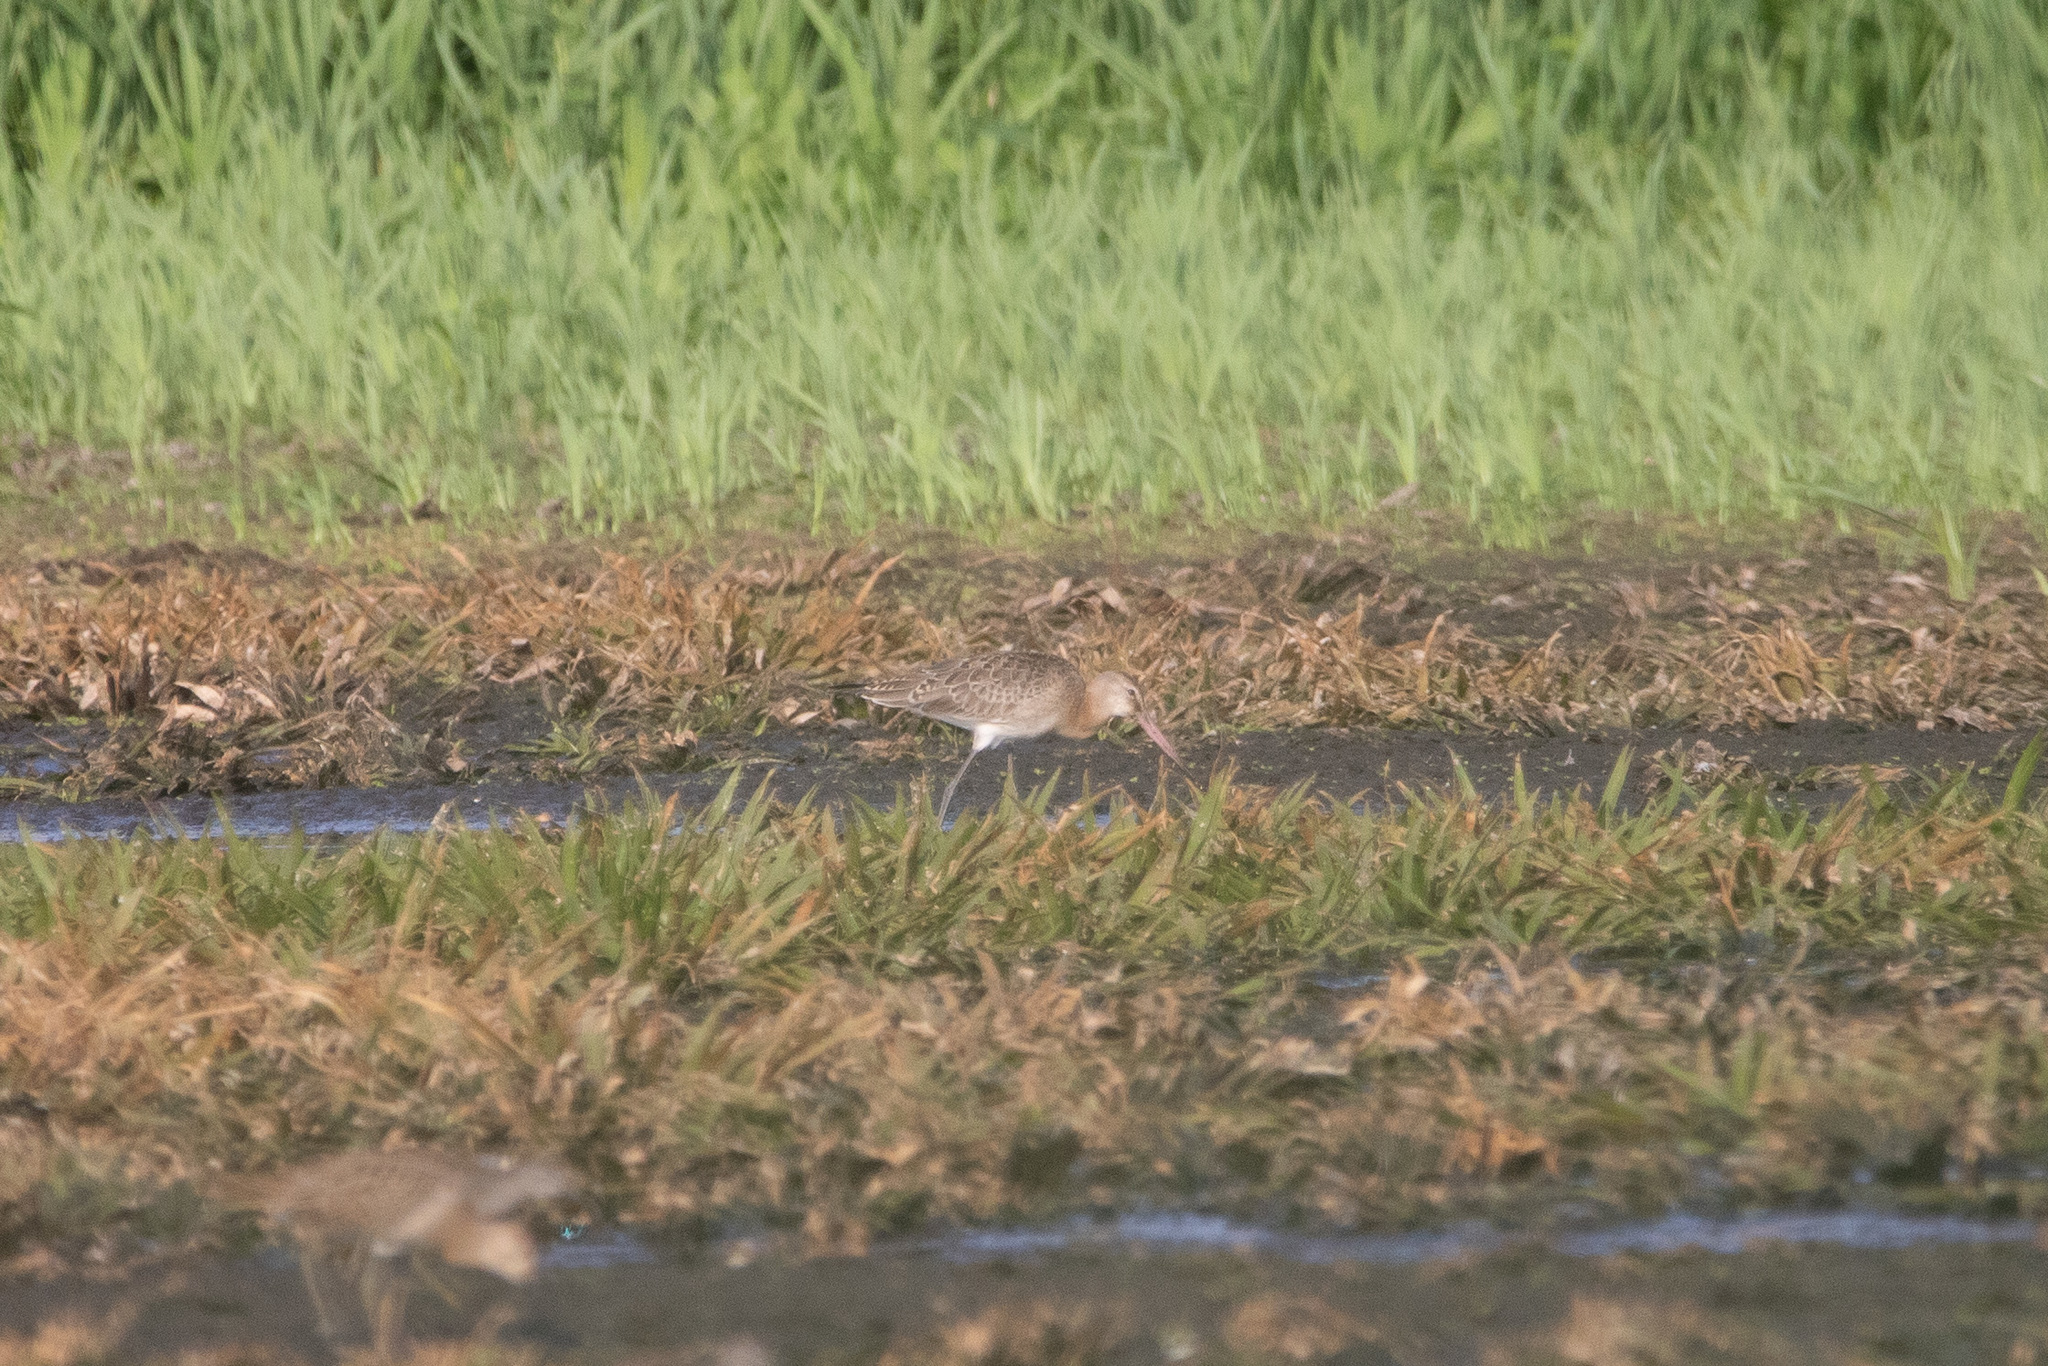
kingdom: Animalia
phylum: Chordata
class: Aves
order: Charadriiformes
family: Scolopacidae
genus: Limosa
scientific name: Limosa limosa
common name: Black-tailed godwit
